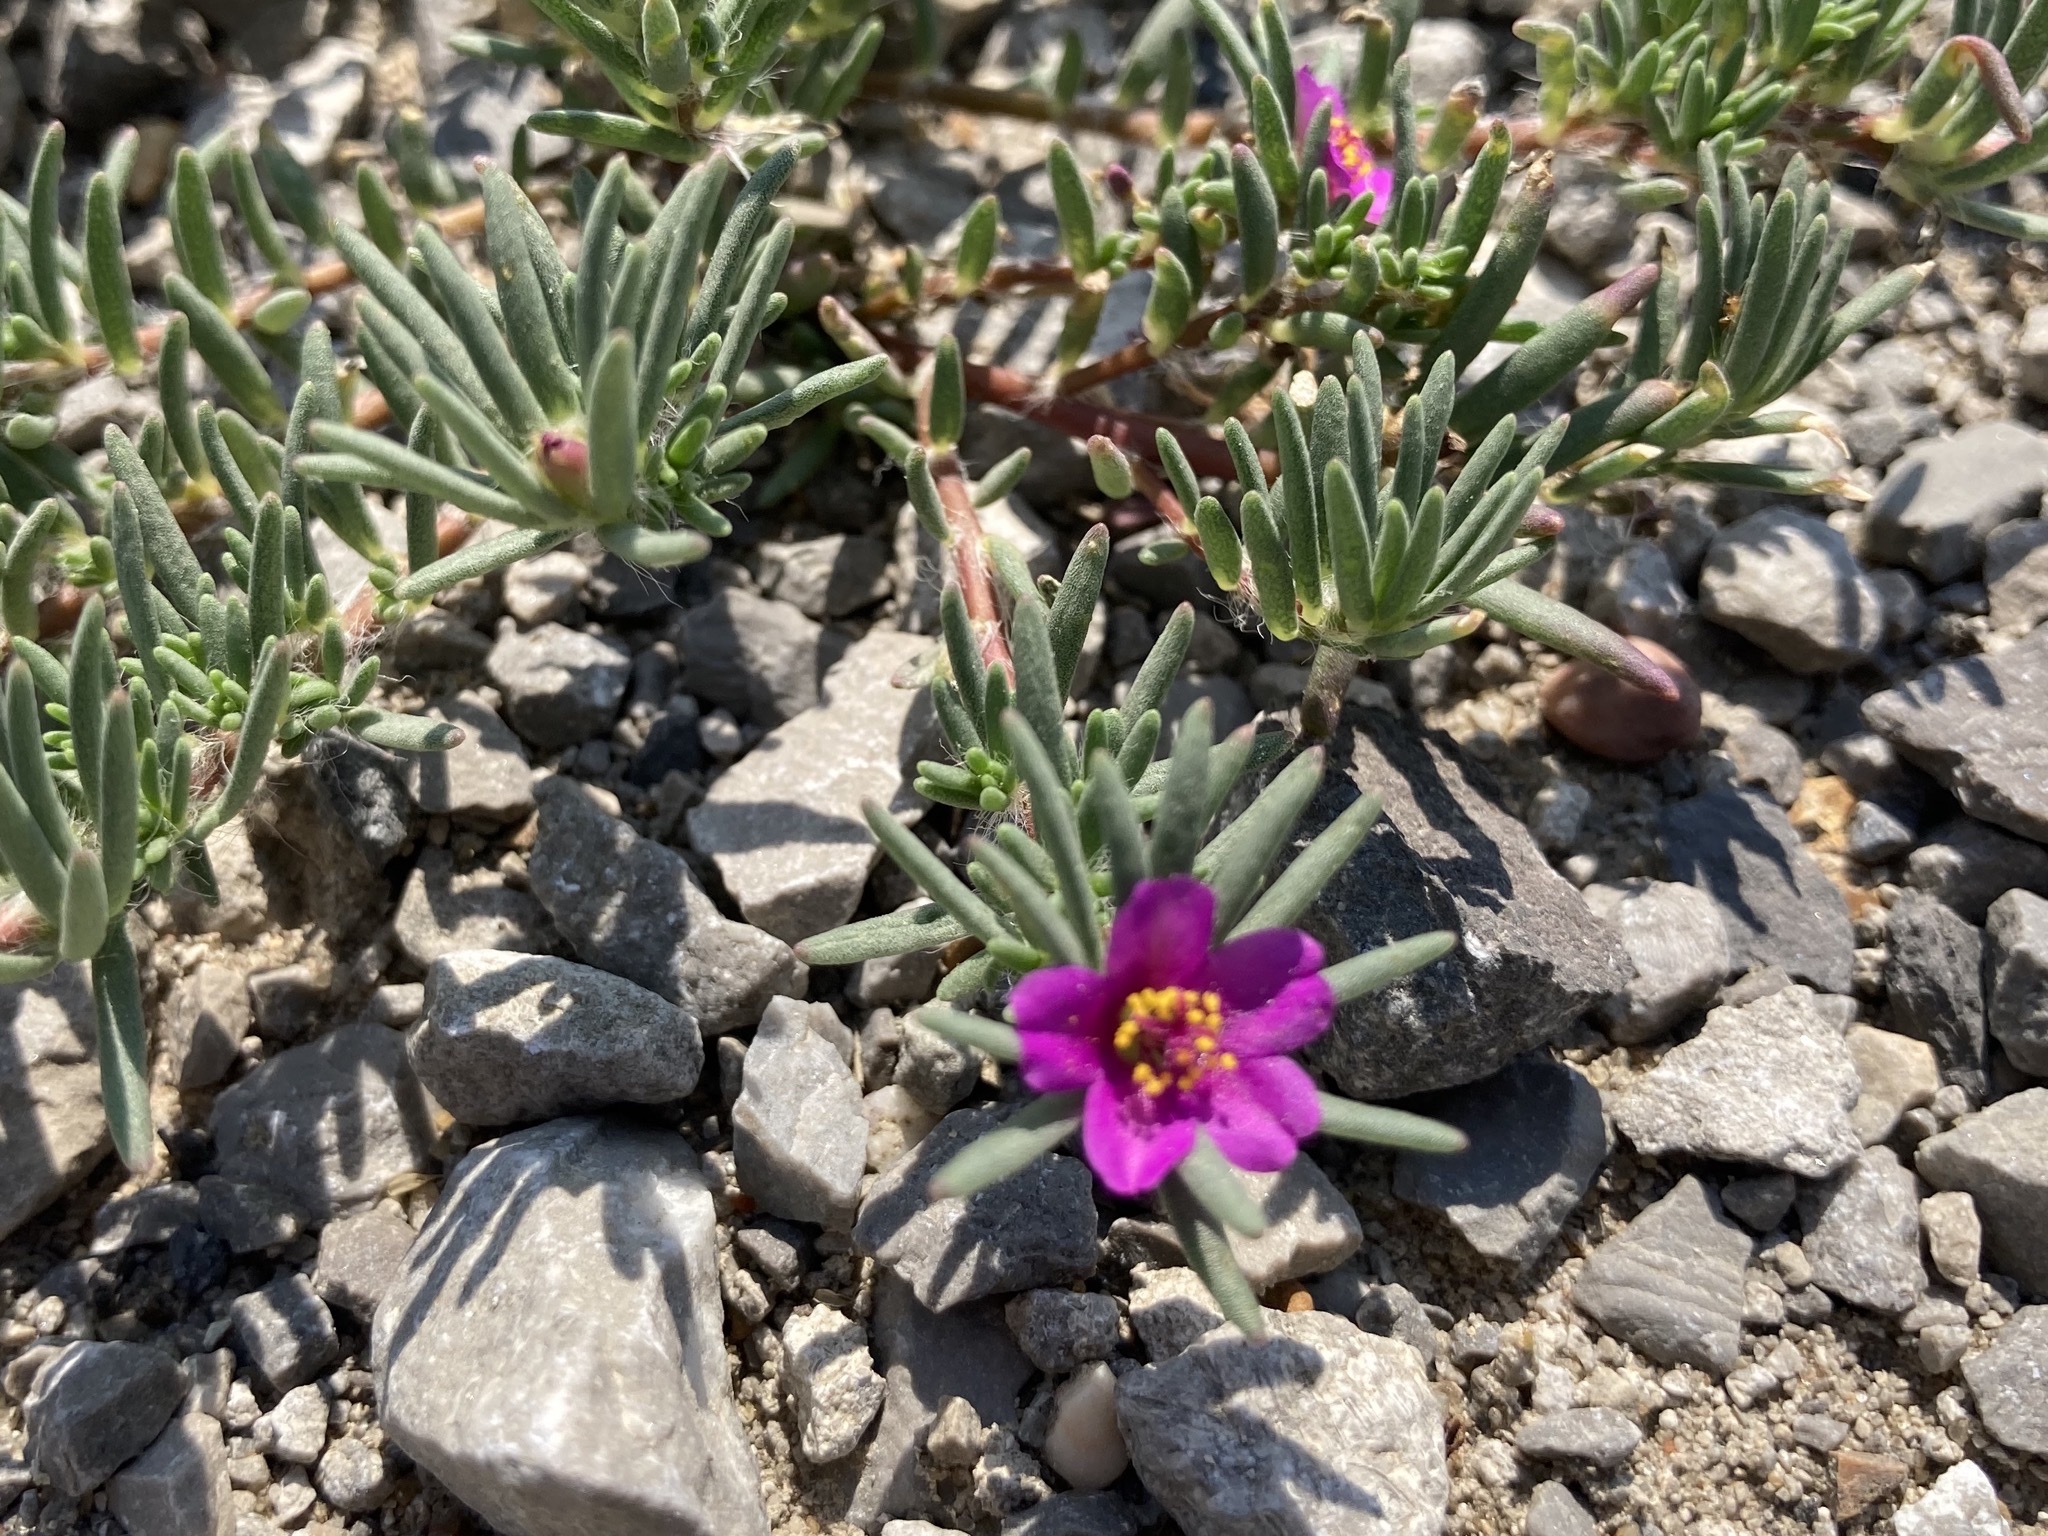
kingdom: Plantae
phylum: Tracheophyta
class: Magnoliopsida
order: Caryophyllales
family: Portulacaceae
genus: Portulaca
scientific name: Portulaca pilosa
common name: Kiss me quick
